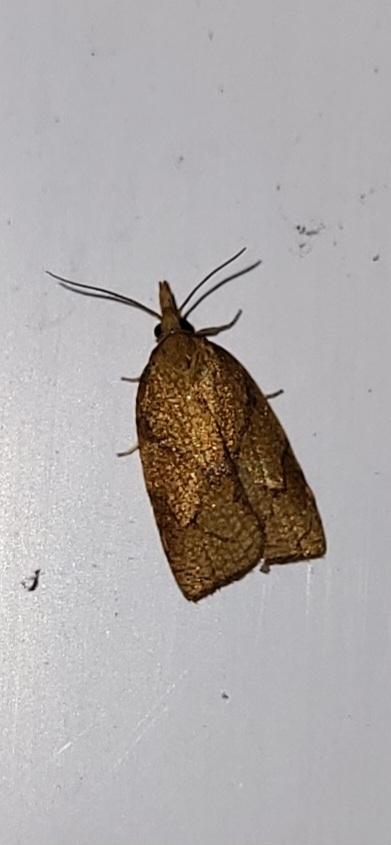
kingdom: Animalia
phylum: Arthropoda
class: Insecta
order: Lepidoptera
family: Tortricidae
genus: Cenopis
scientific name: Cenopis reticulatana
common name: Reticulated fruitworm moth
